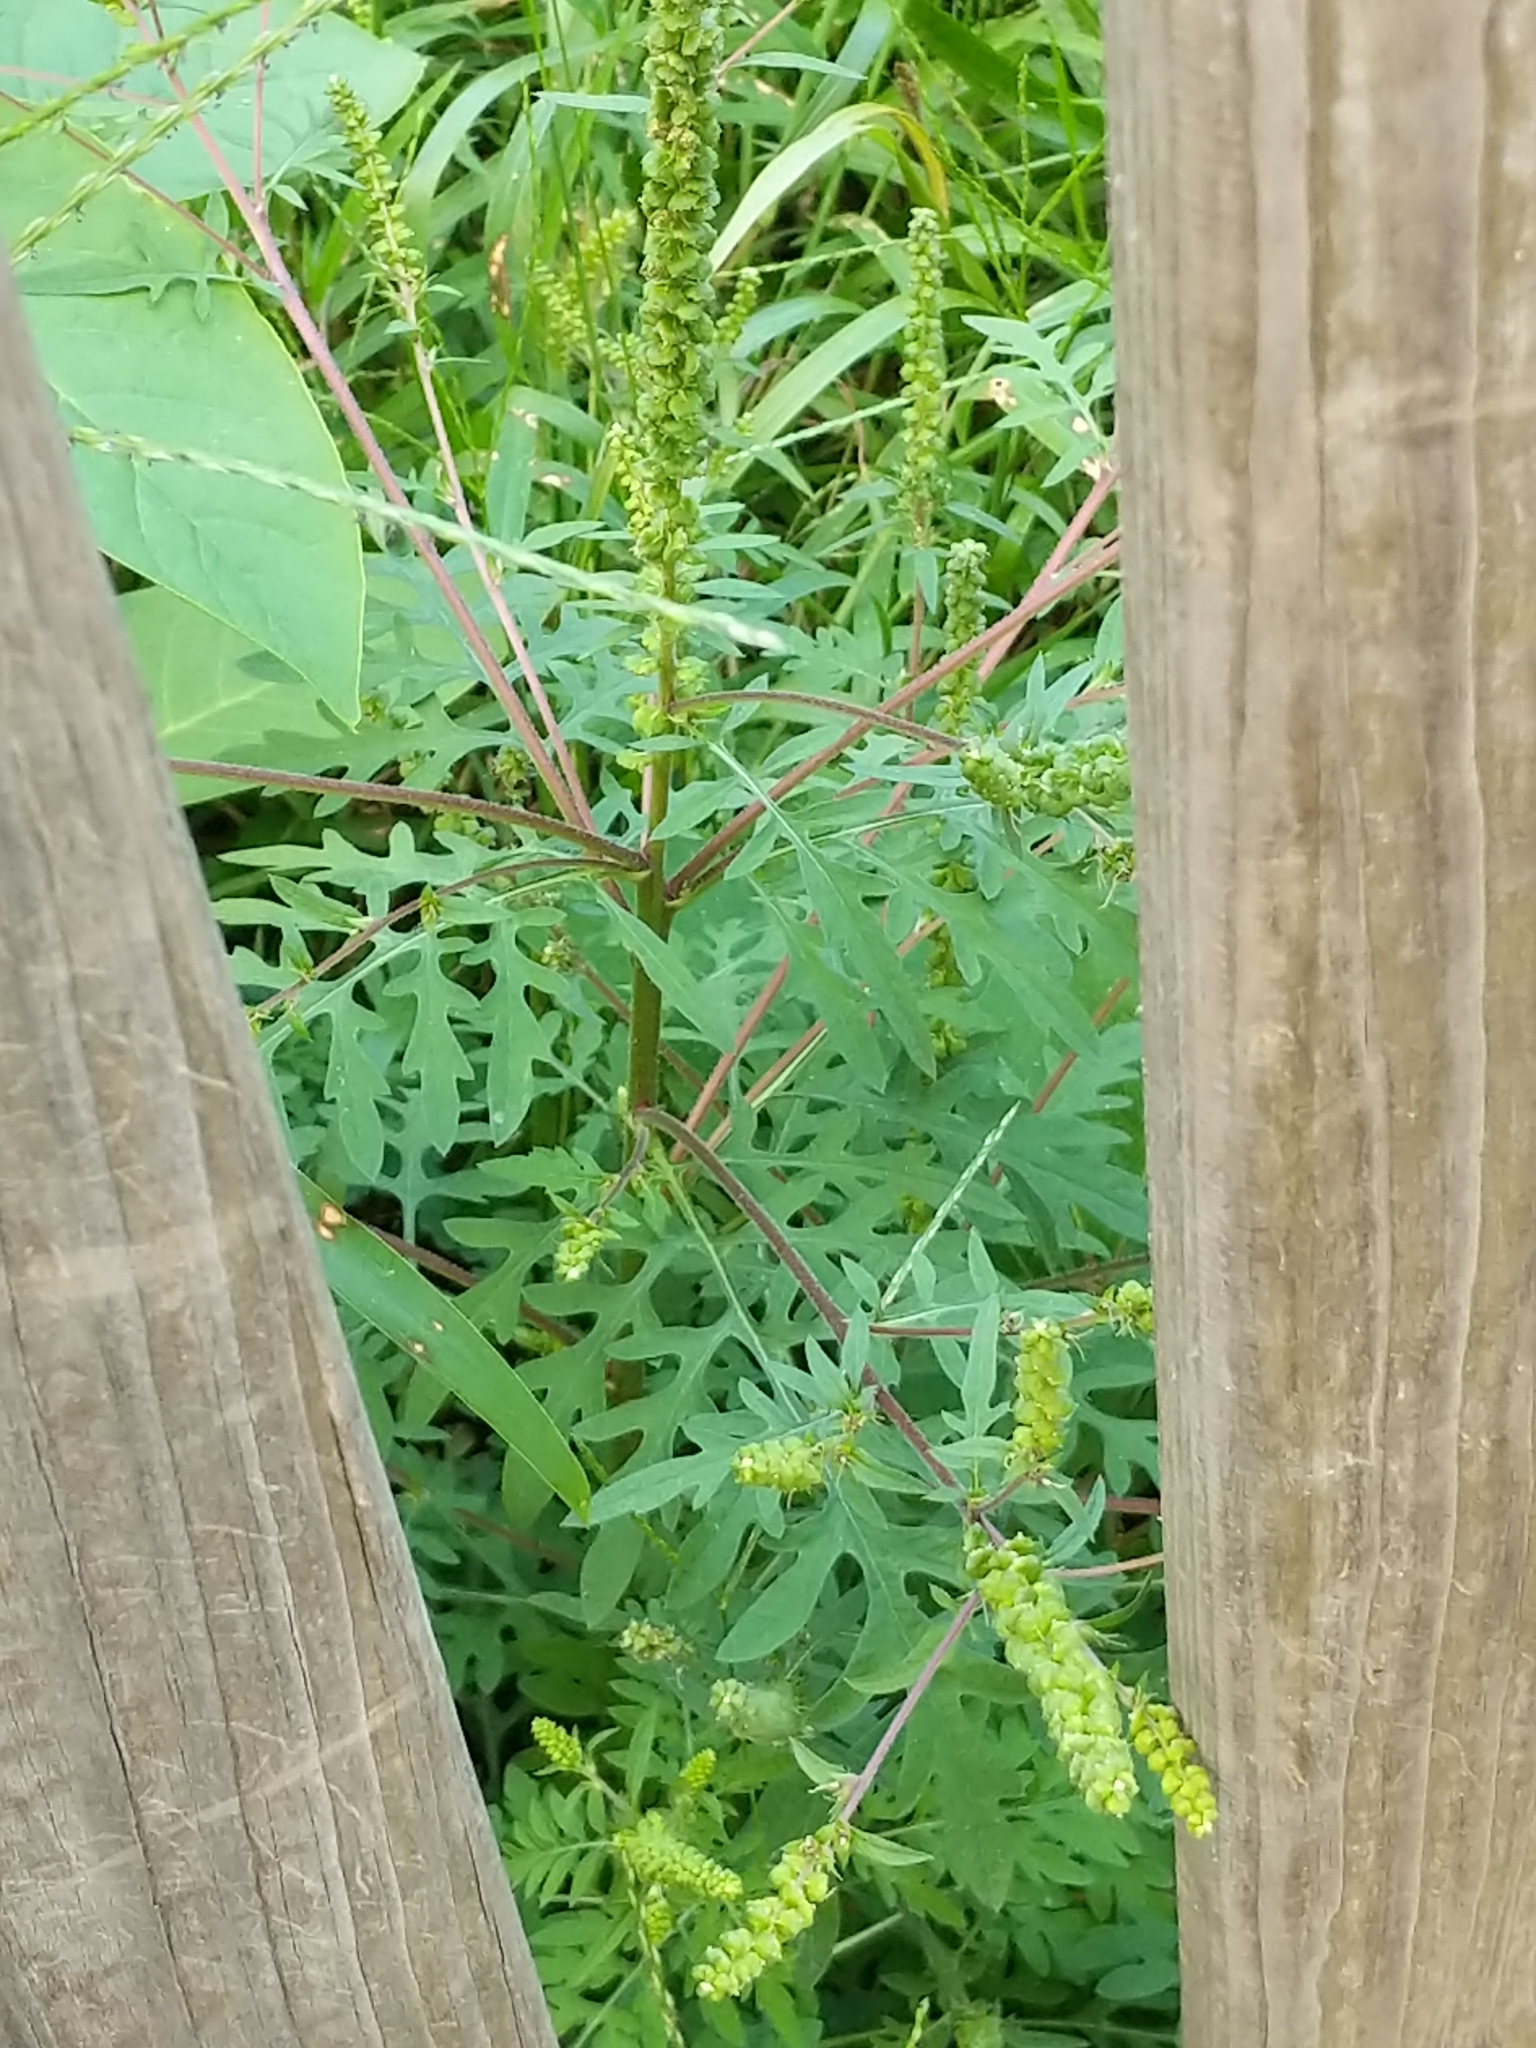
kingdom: Plantae
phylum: Tracheophyta
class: Magnoliopsida
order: Asterales
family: Asteraceae
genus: Ambrosia
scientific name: Ambrosia artemisiifolia
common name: Annual ragweed
